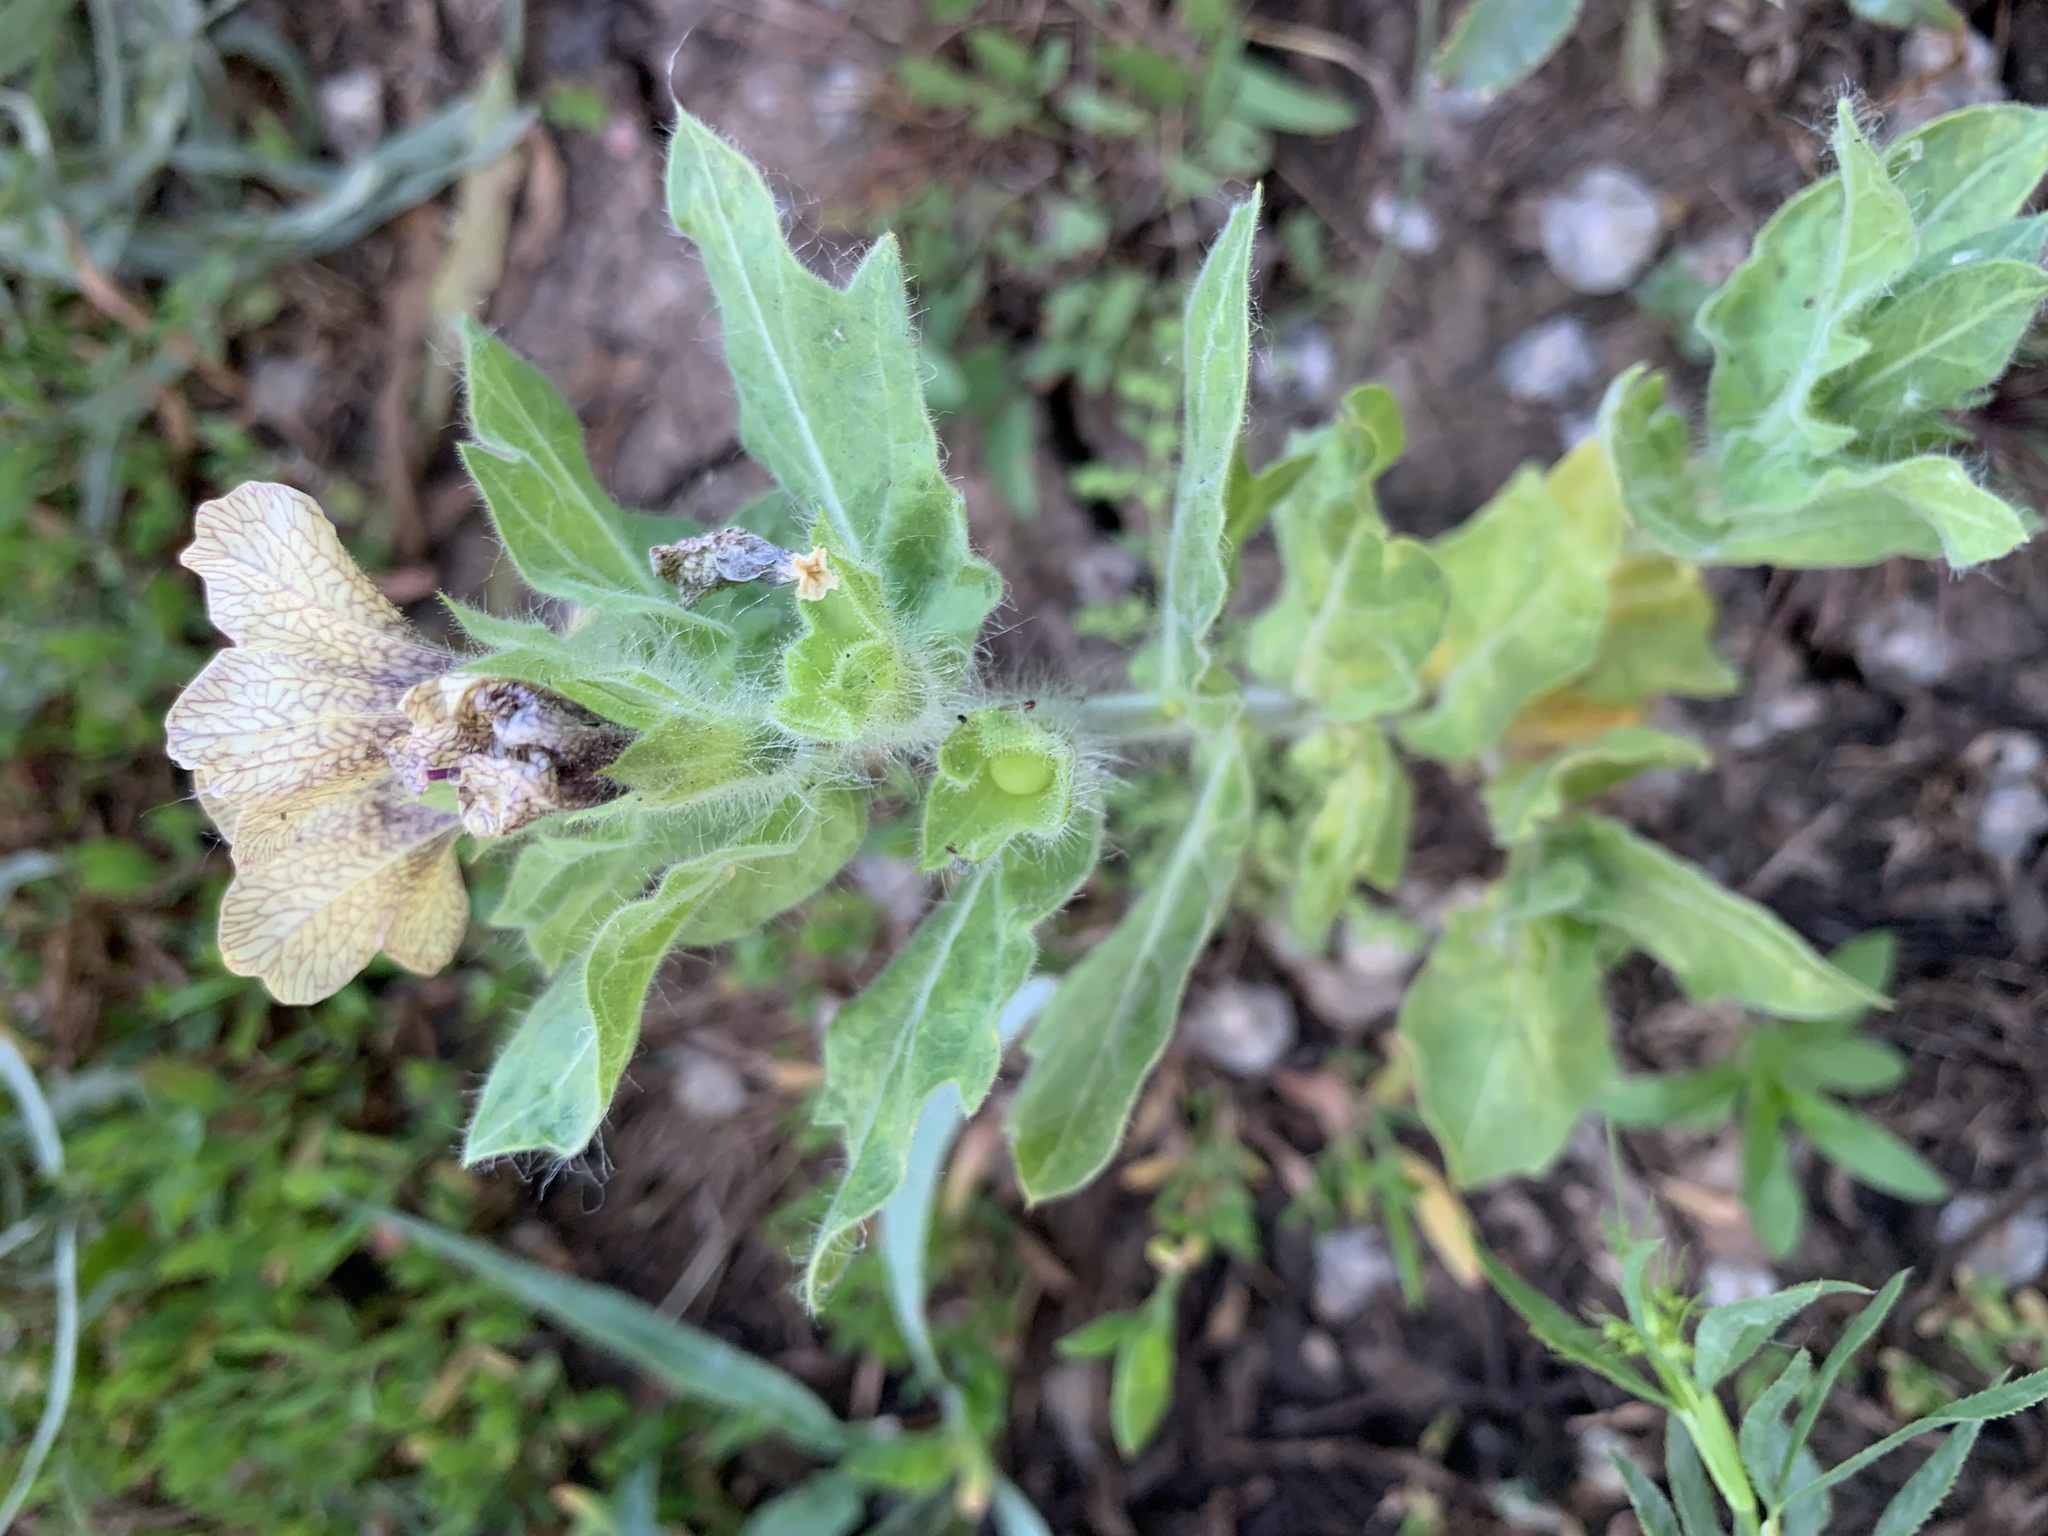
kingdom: Plantae
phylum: Tracheophyta
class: Magnoliopsida
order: Solanales
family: Solanaceae
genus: Hyoscyamus
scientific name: Hyoscyamus niger
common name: Henbane
